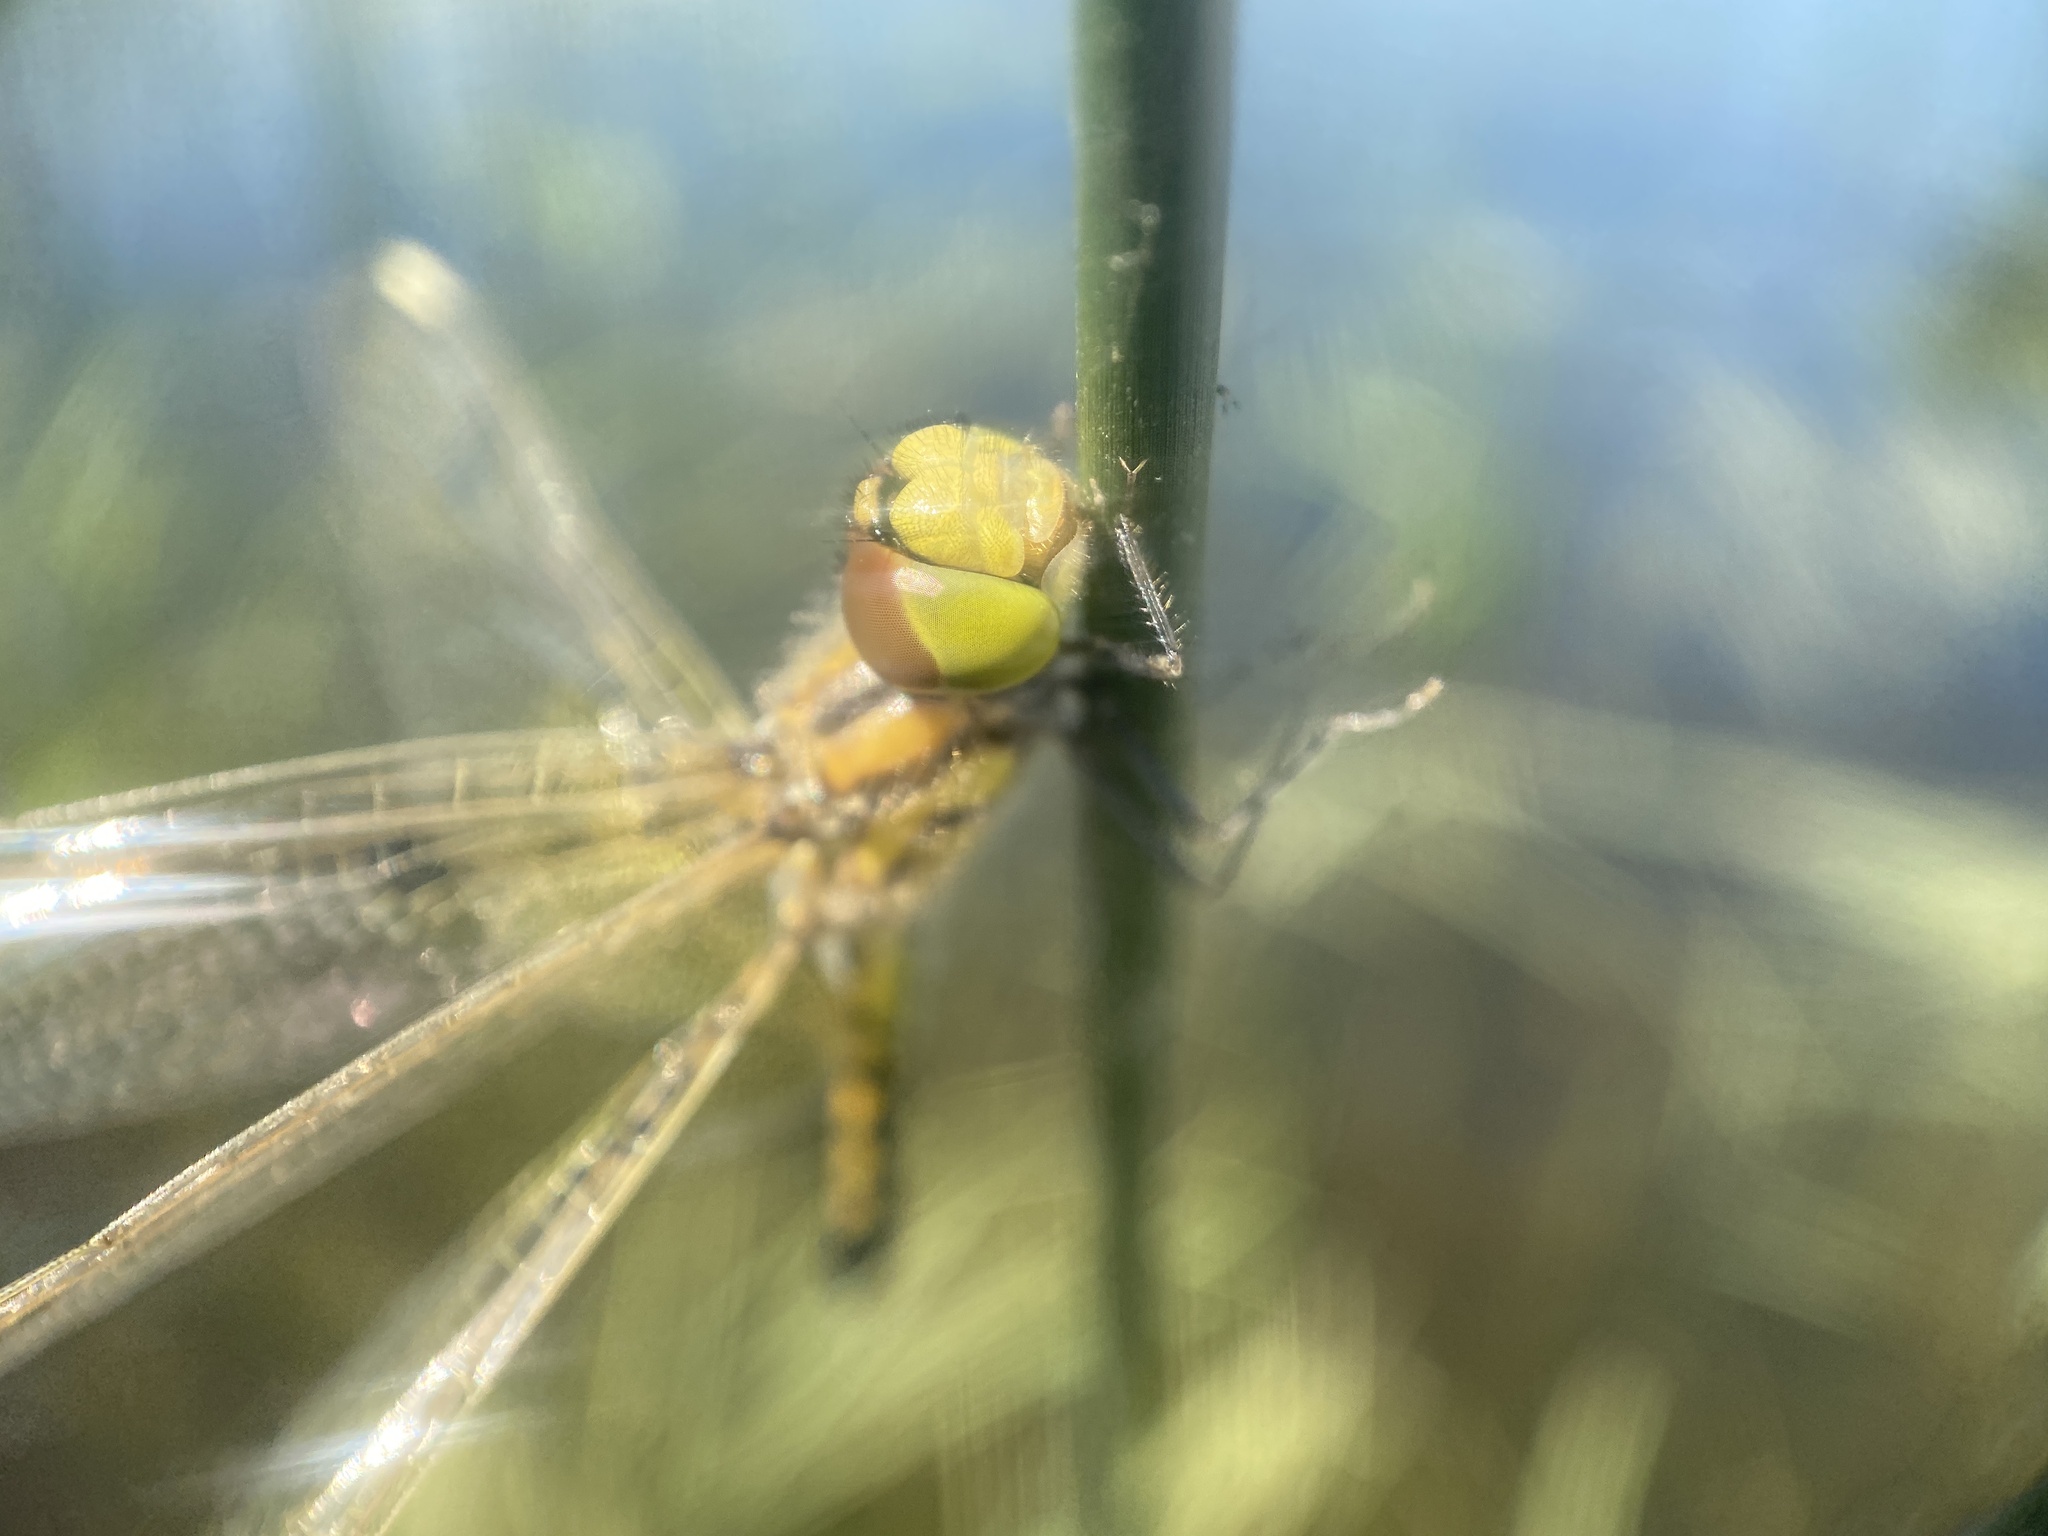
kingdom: Animalia
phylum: Arthropoda
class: Insecta
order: Odonata
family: Libellulidae
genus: Celithemis
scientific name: Celithemis elisa
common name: Calico pennant
